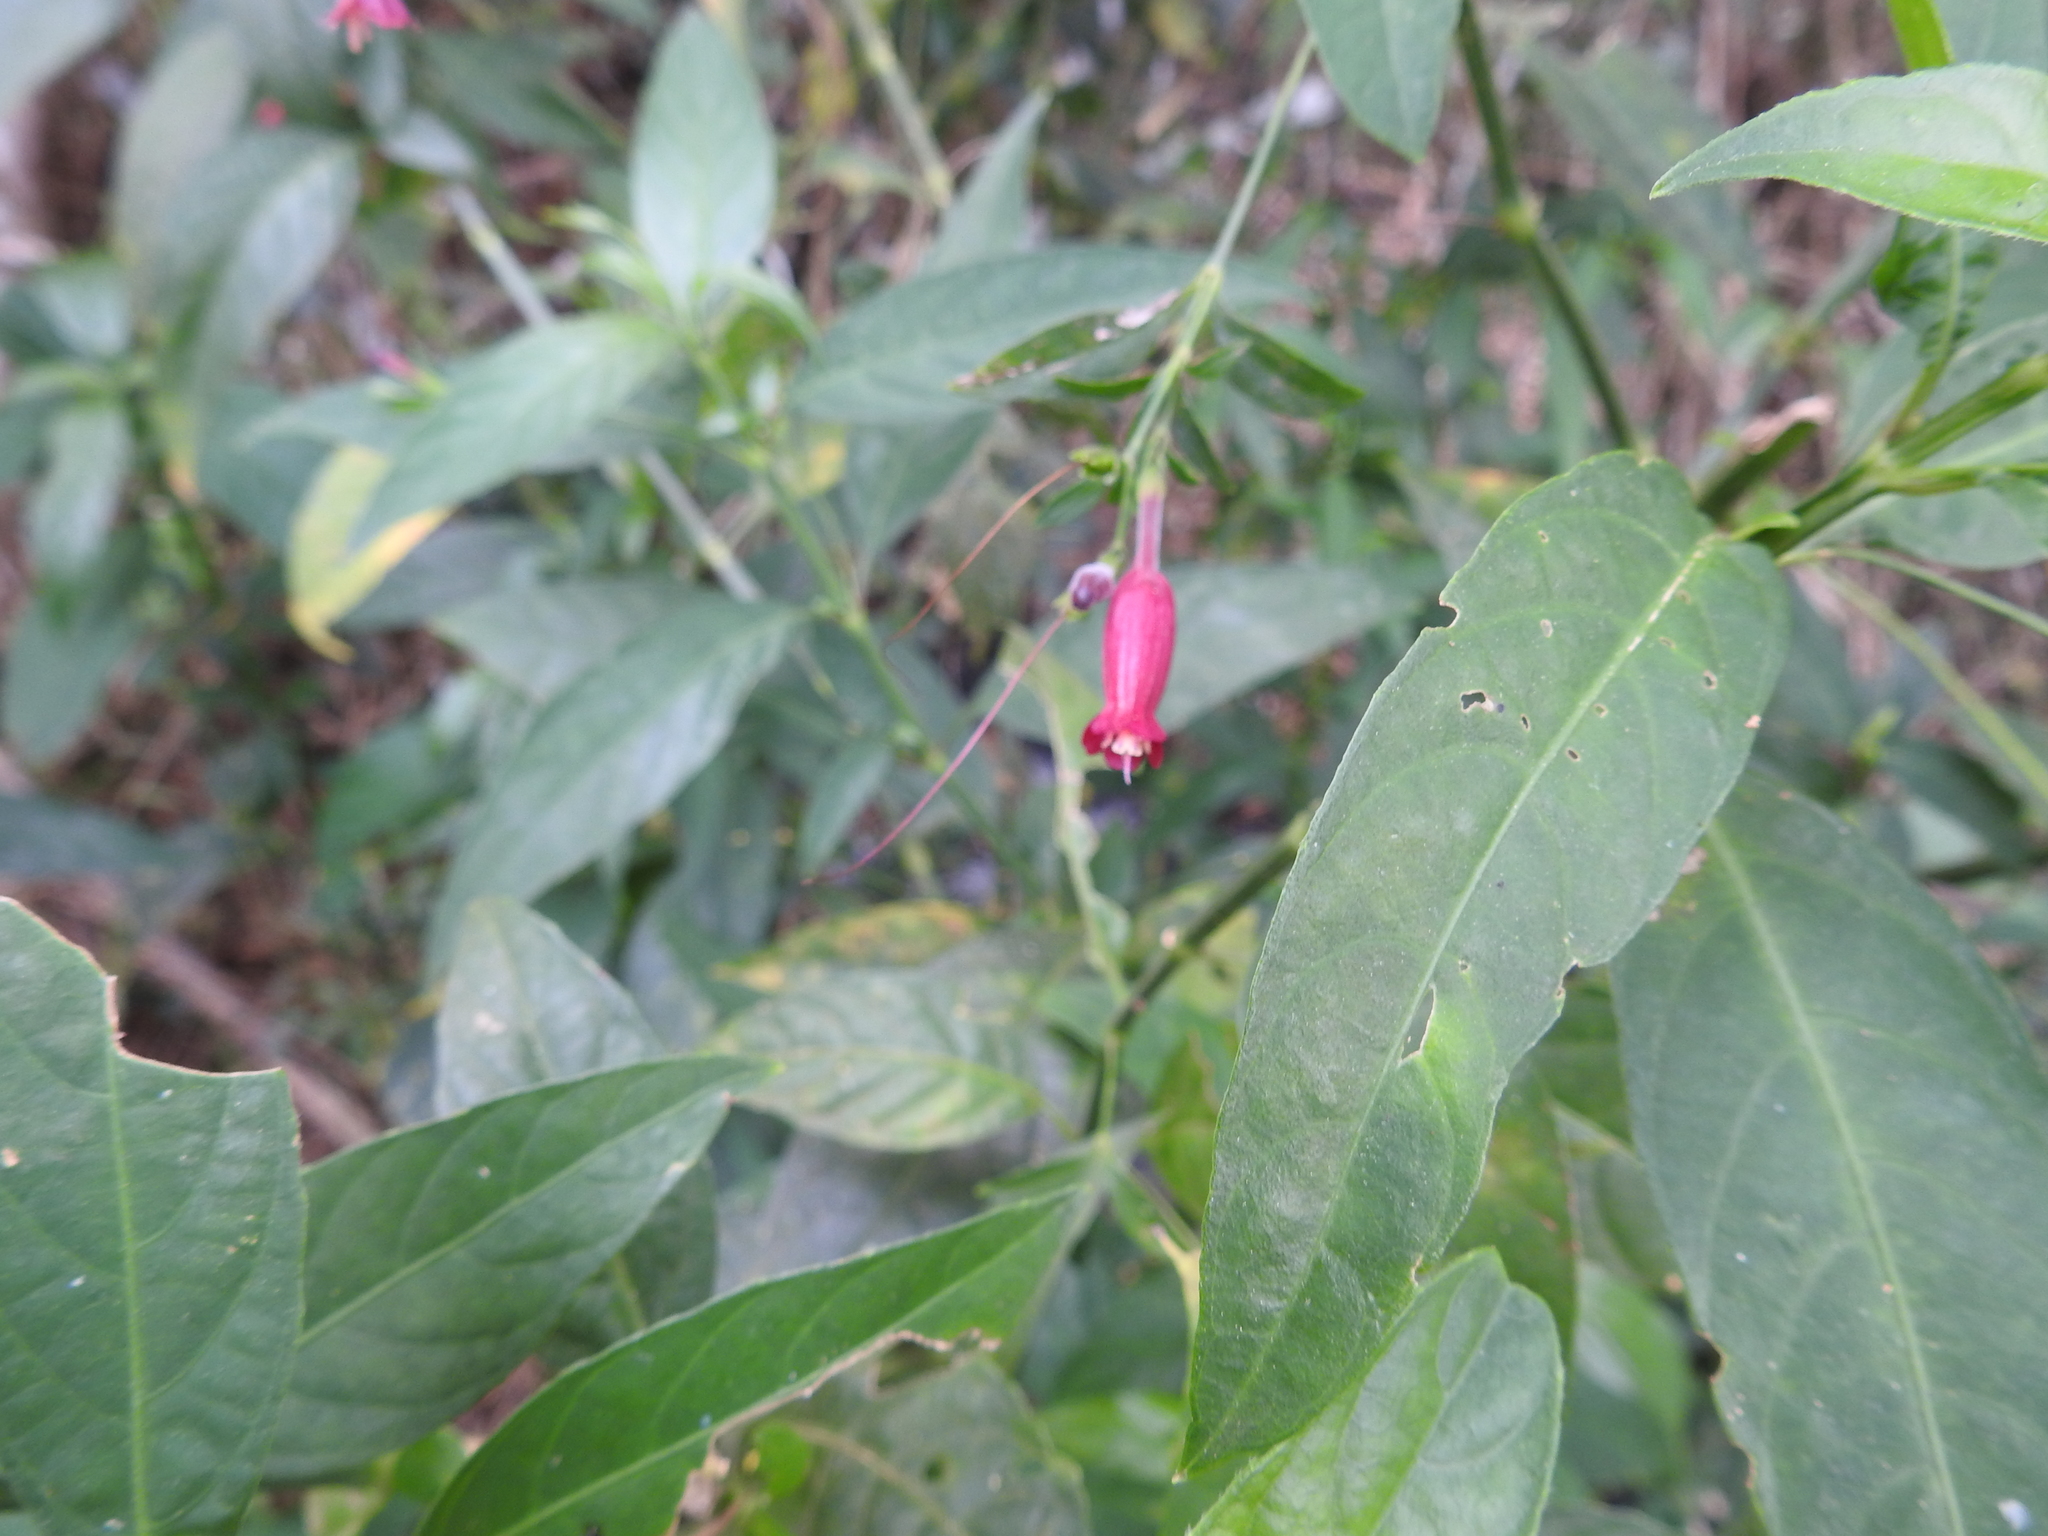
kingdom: Plantae
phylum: Tracheophyta
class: Magnoliopsida
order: Lamiales
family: Acanthaceae
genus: Ruellia
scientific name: Ruellia angustiflora
